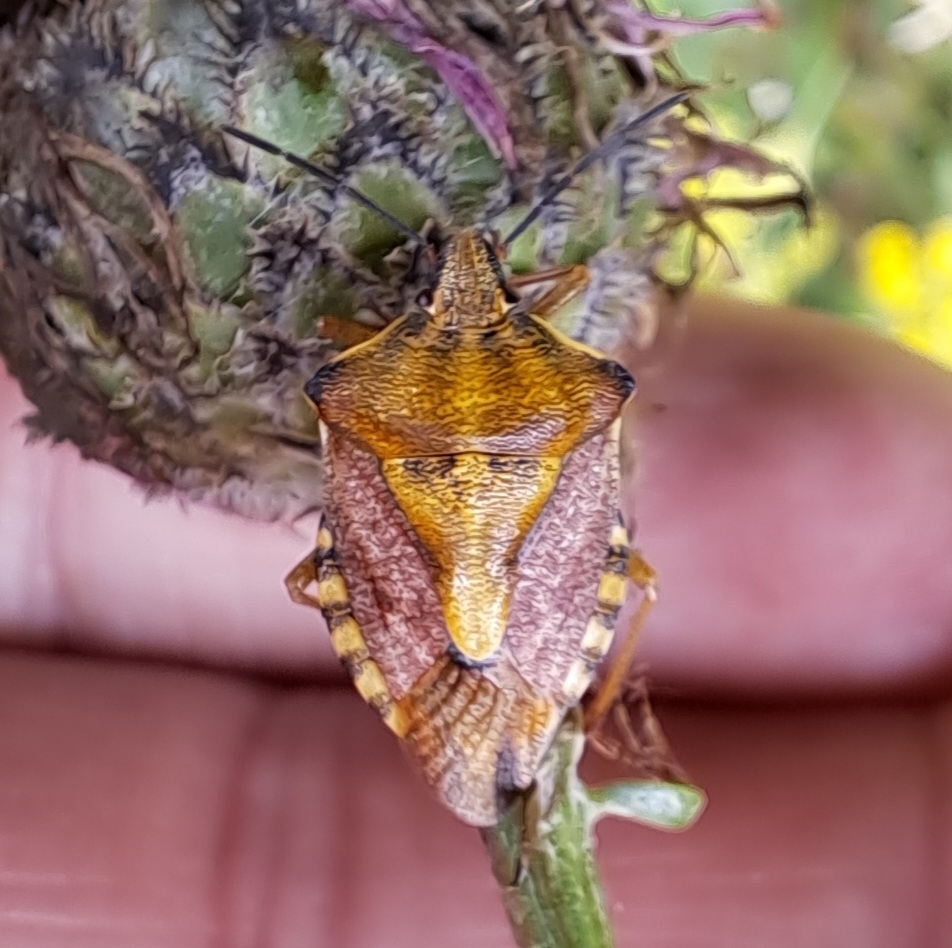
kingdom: Animalia
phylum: Arthropoda
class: Insecta
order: Hemiptera
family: Pentatomidae
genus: Carpocoris
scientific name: Carpocoris purpureipennis
